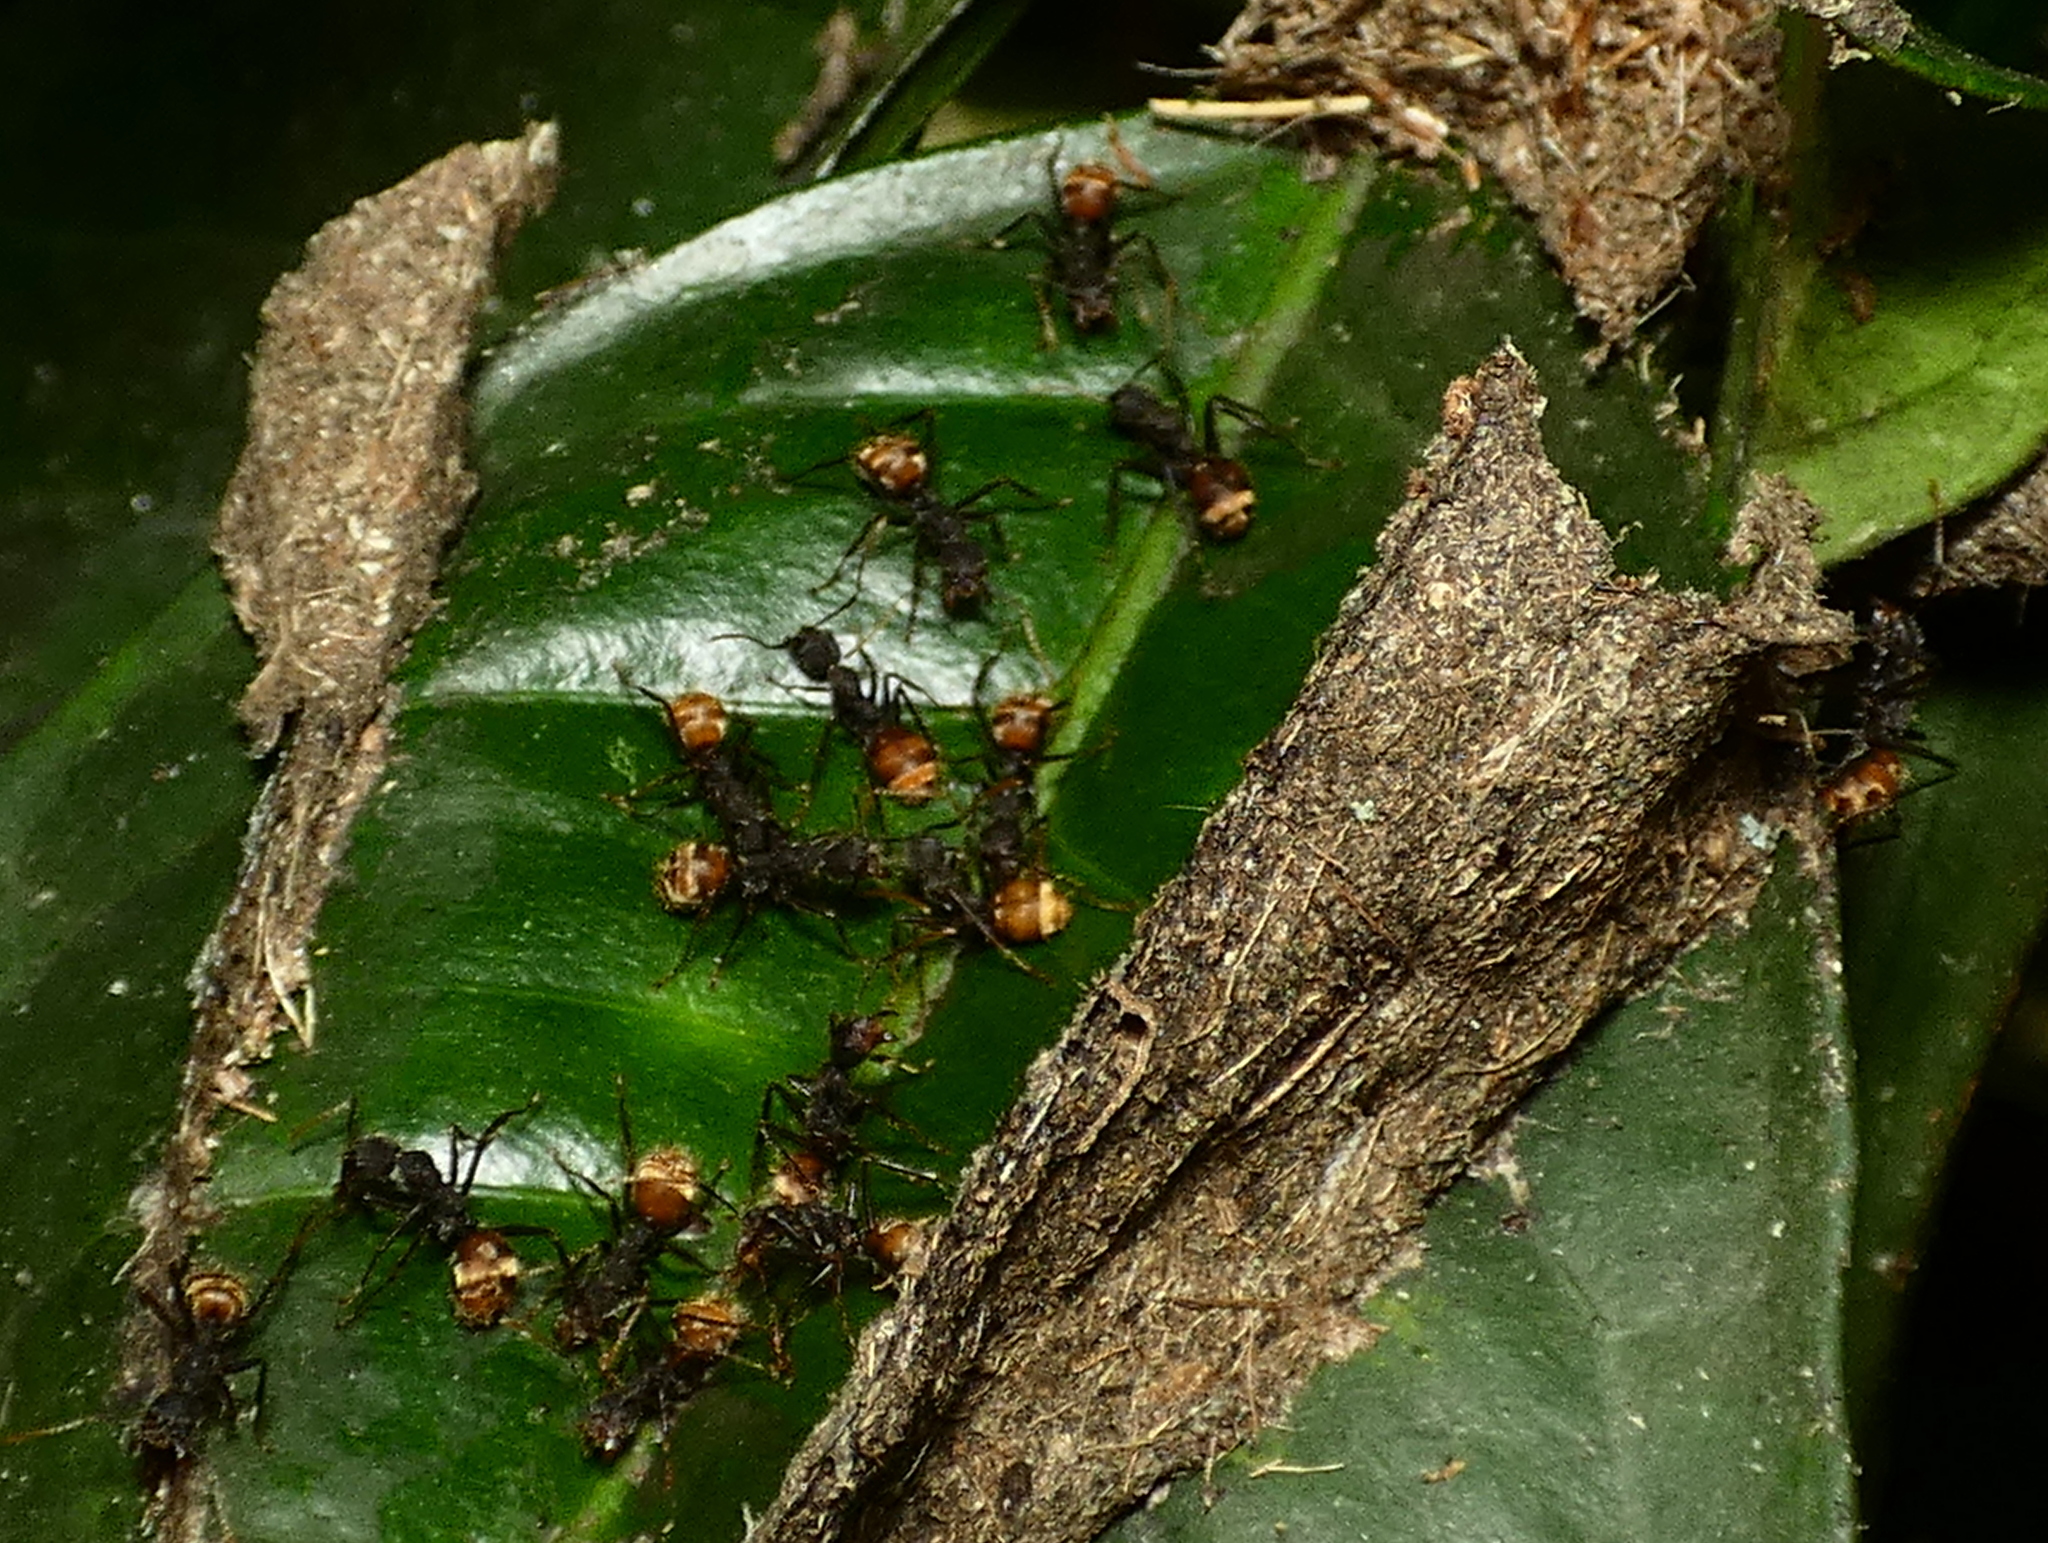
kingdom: Animalia
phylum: Arthropoda
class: Insecta
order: Hymenoptera
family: Formicidae
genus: Dolichoderus
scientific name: Dolichoderus bidens
